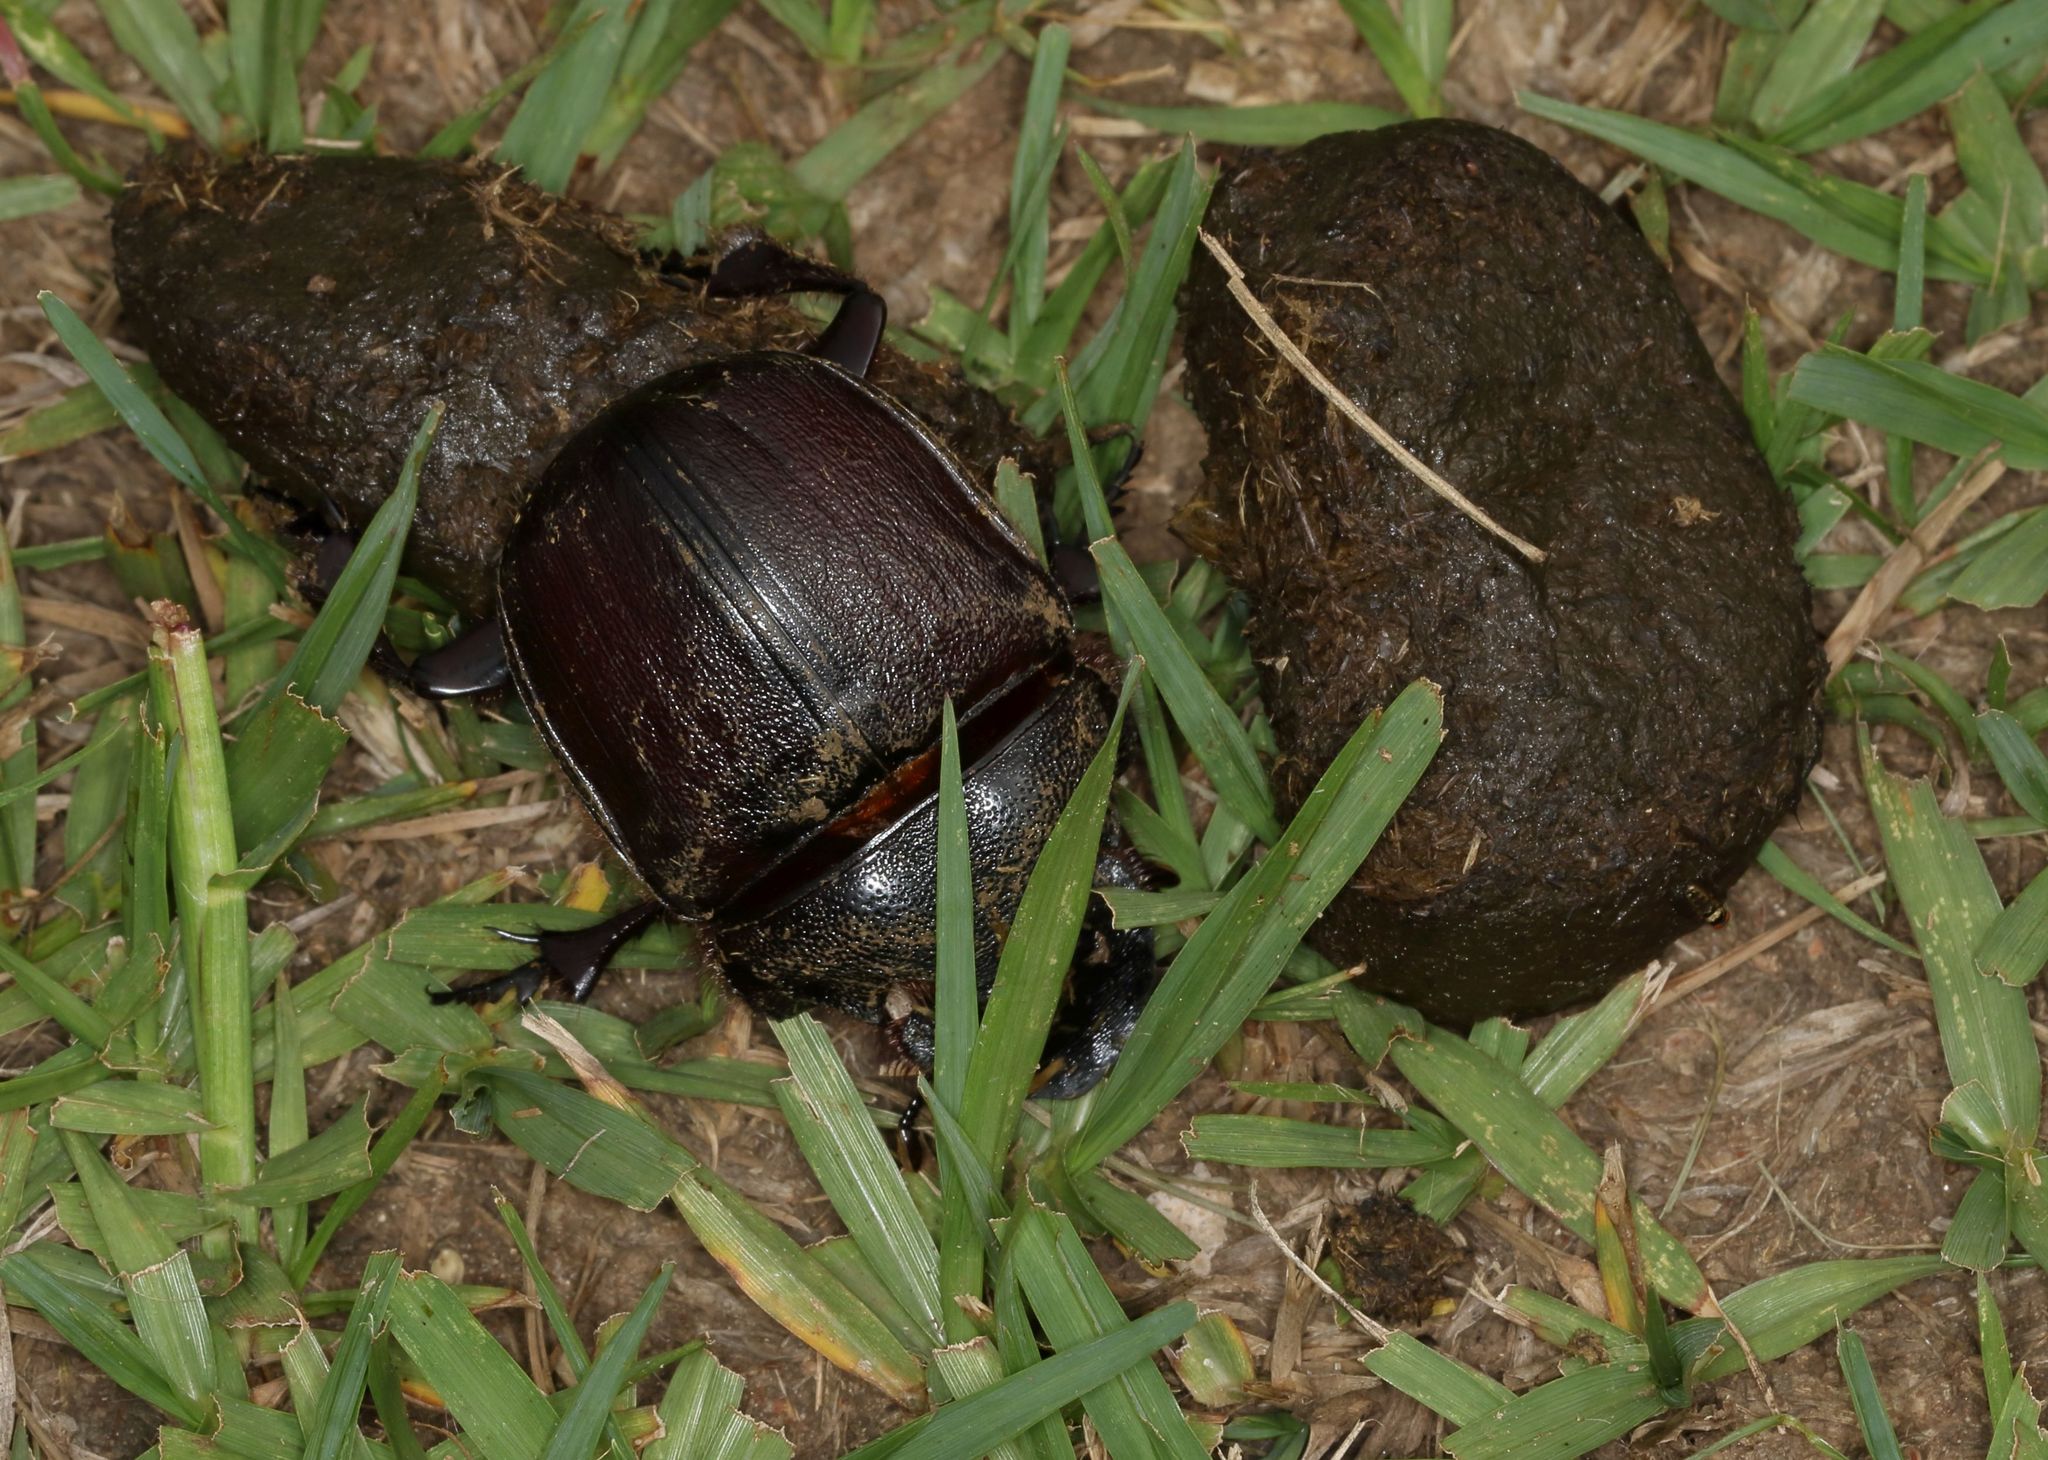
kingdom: Animalia
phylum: Arthropoda
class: Insecta
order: Coleoptera
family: Scarabaeidae
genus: Heliocopris
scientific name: Heliocopris andersoni
